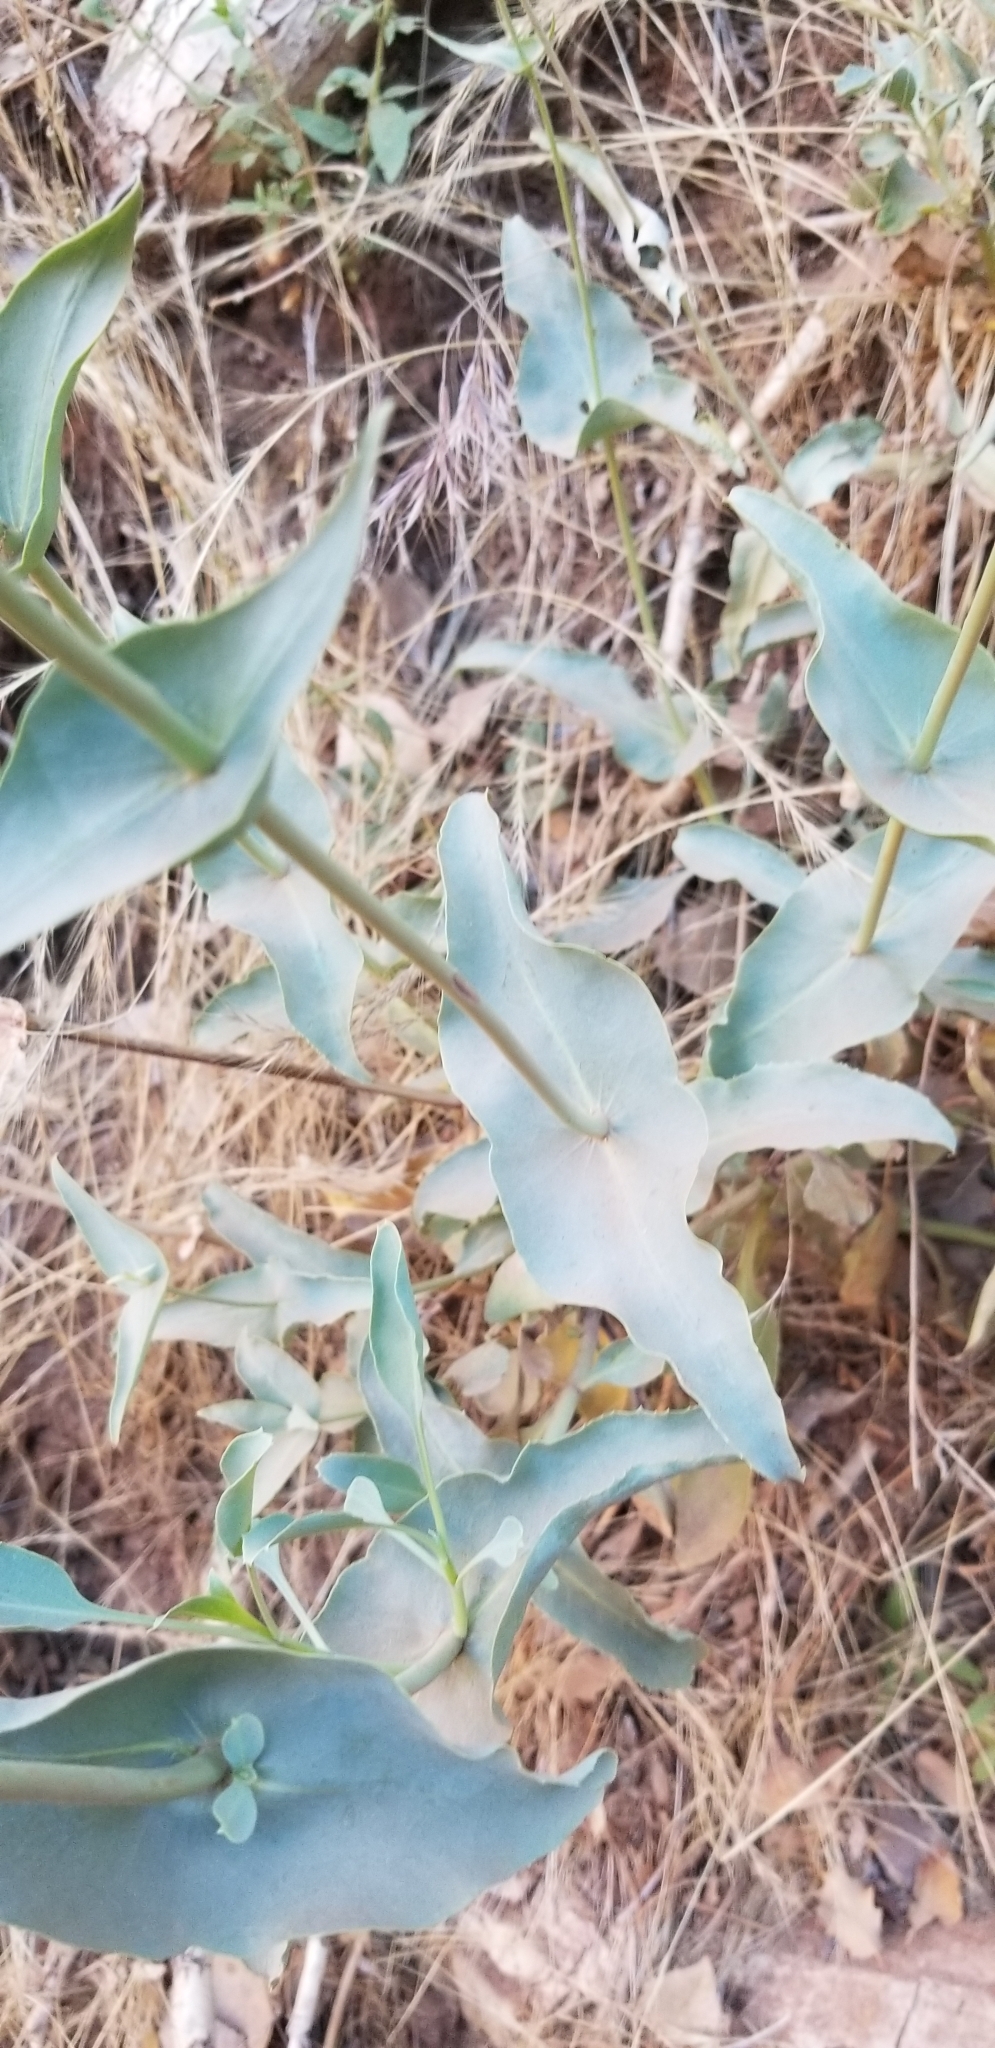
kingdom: Plantae
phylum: Tracheophyta
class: Magnoliopsida
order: Lamiales
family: Plantaginaceae
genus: Penstemon
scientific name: Penstemon palmeri
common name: Palmer penstemon
